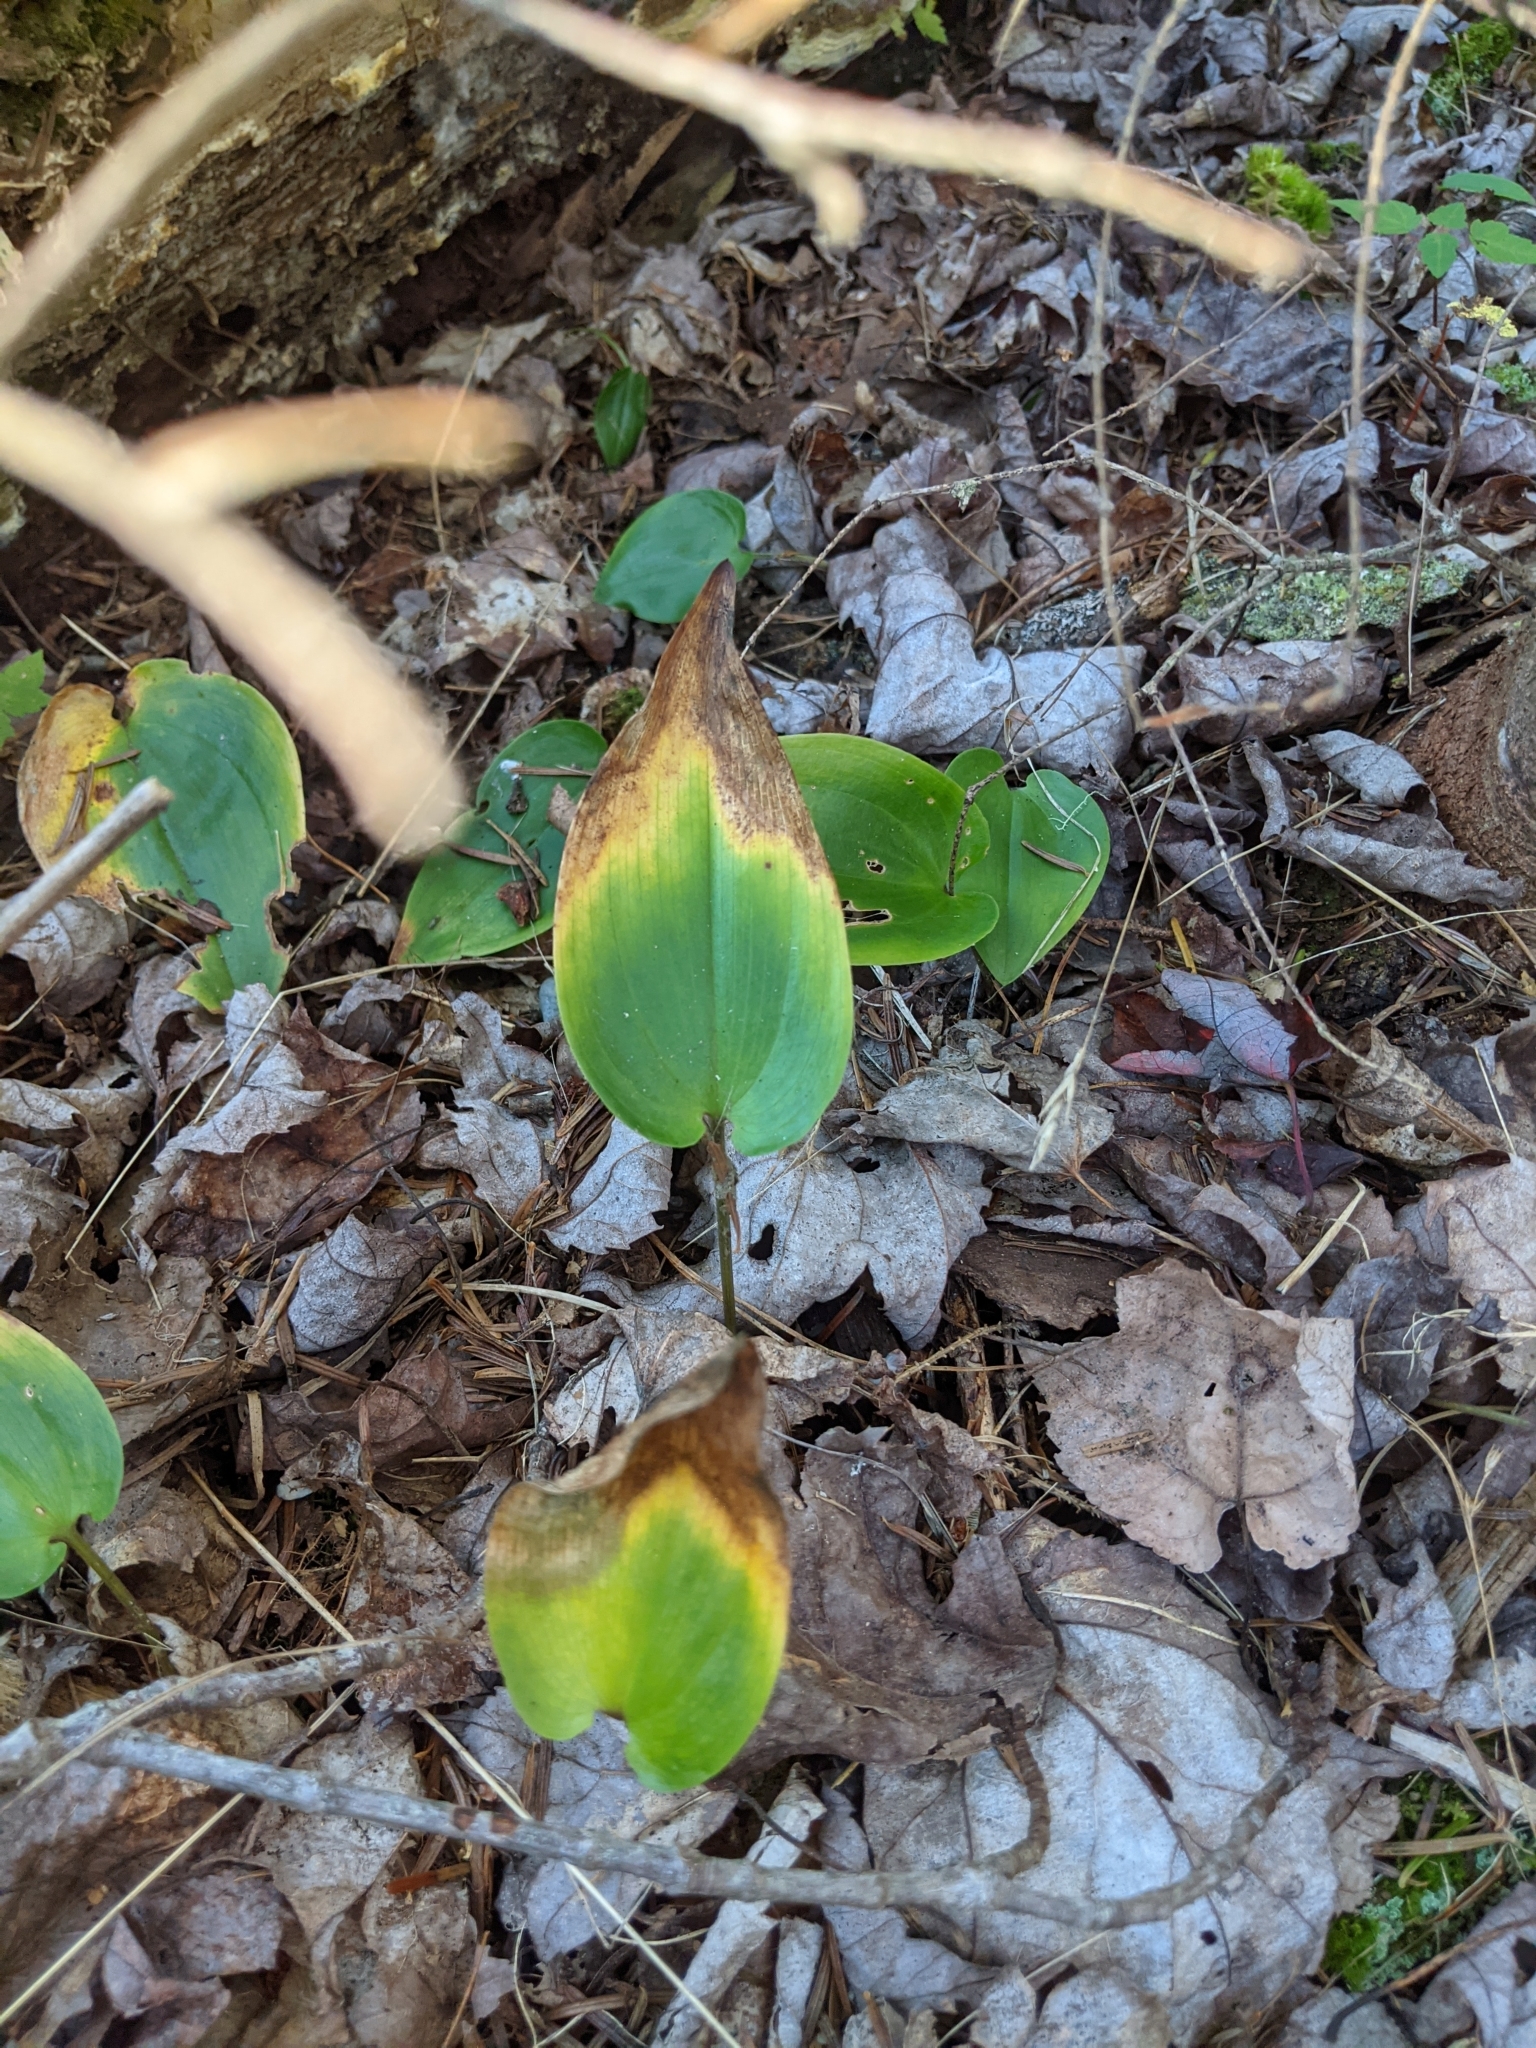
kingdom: Plantae
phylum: Tracheophyta
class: Liliopsida
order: Asparagales
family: Asparagaceae
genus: Maianthemum
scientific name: Maianthemum canadense
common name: False lily-of-the-valley
